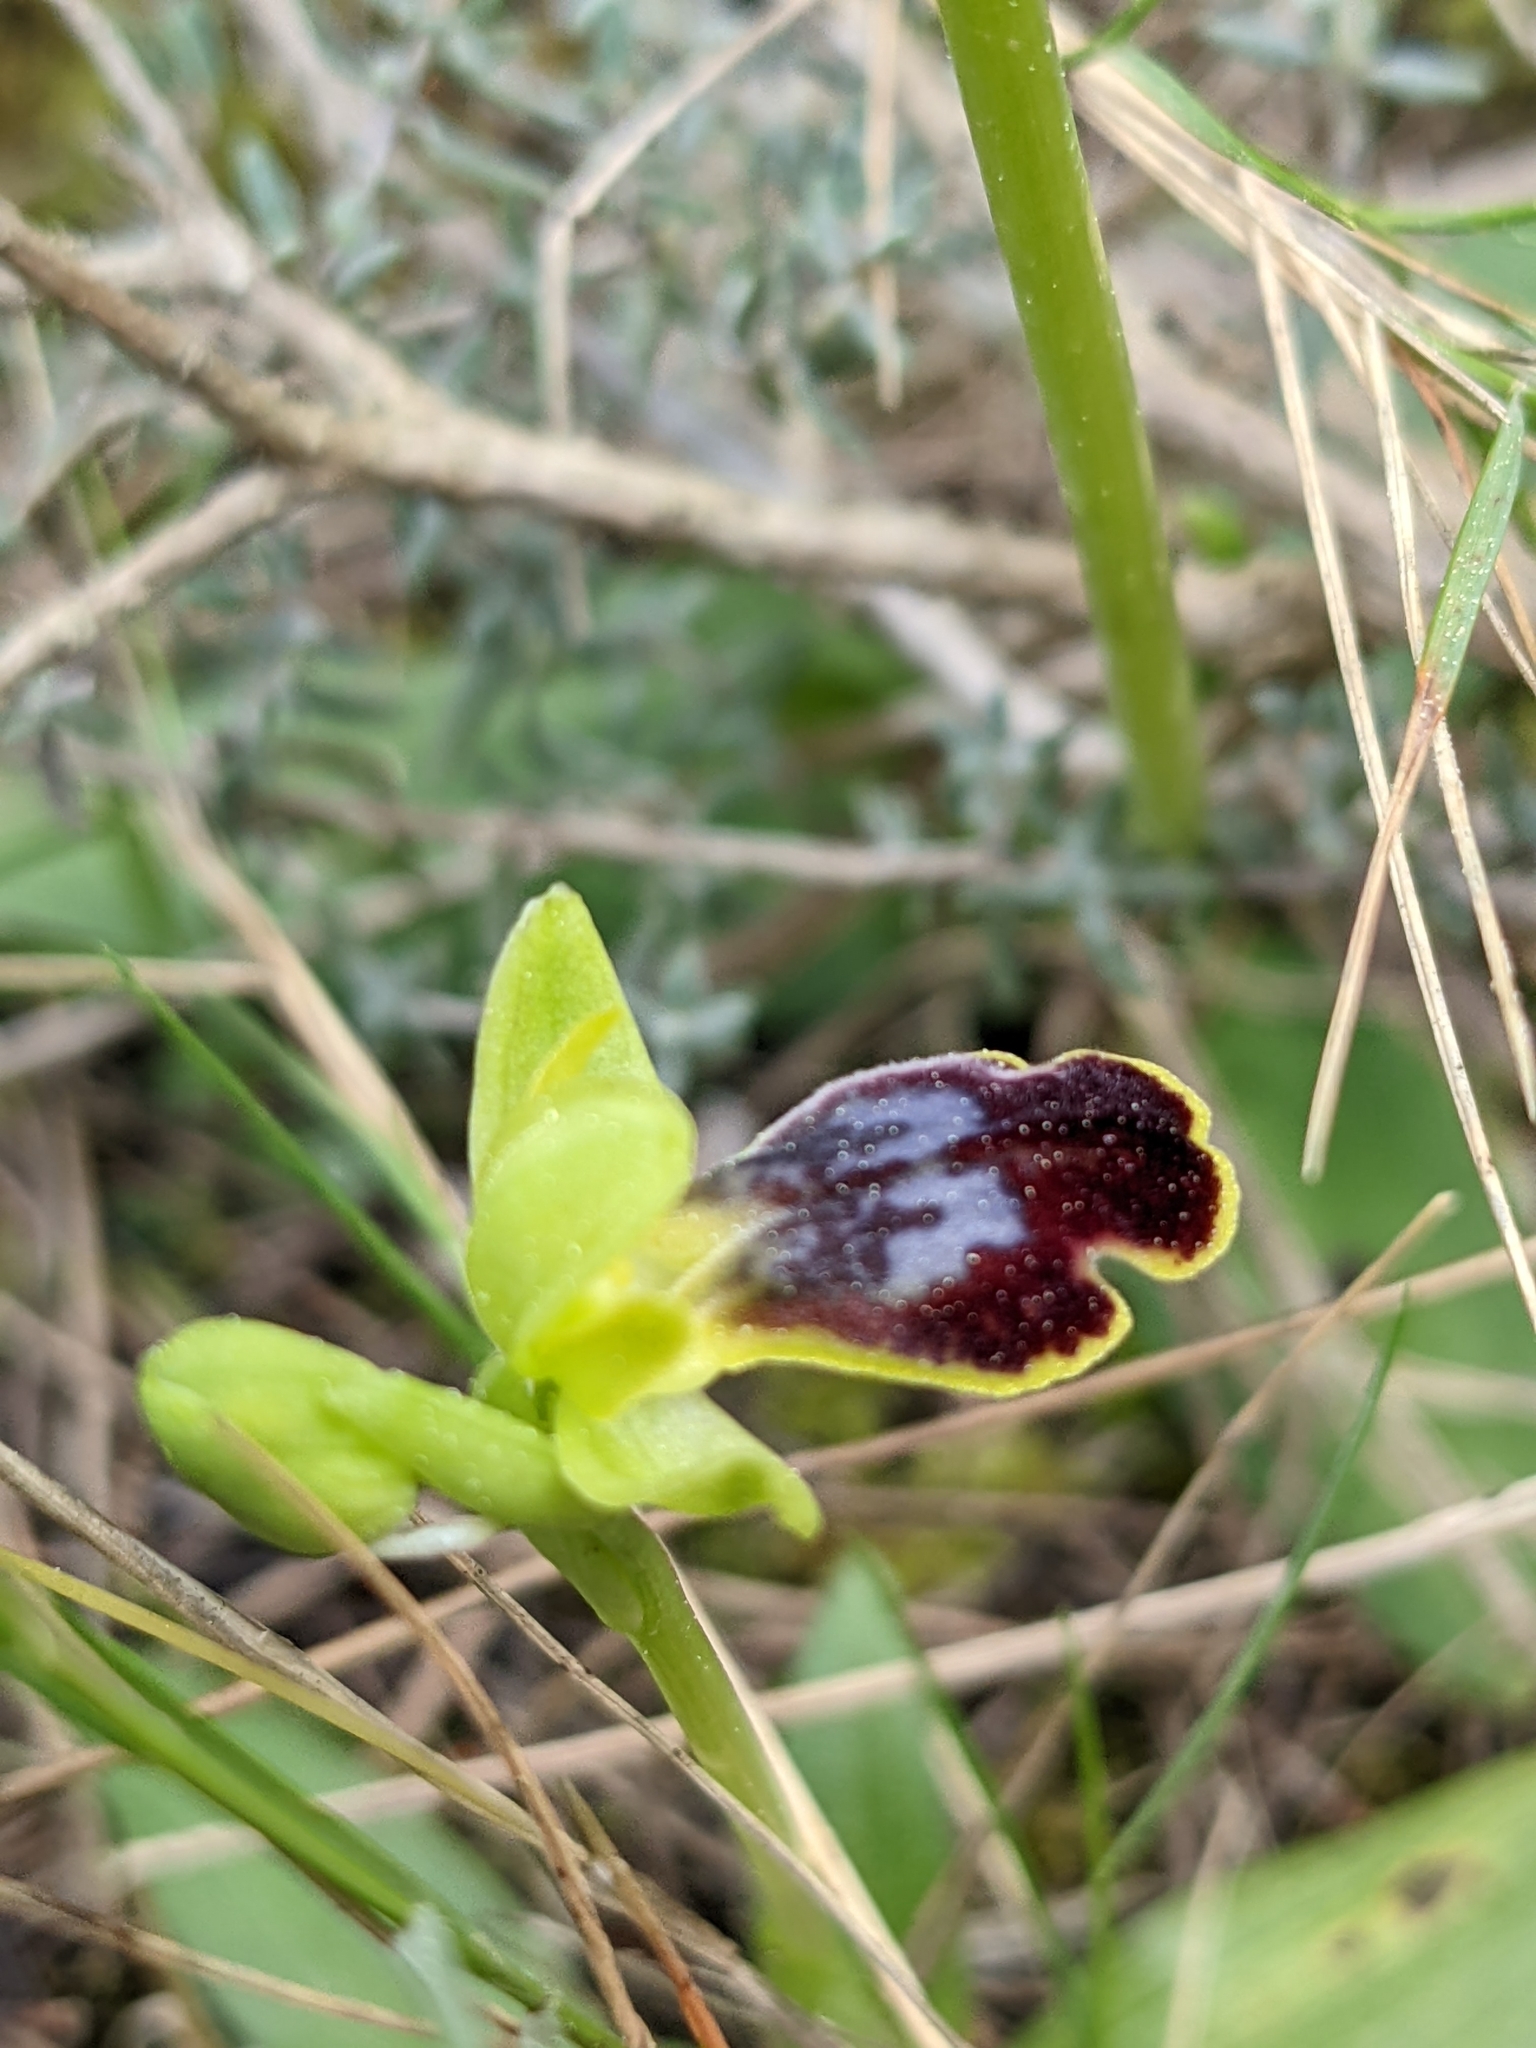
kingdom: Plantae
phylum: Tracheophyta
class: Liliopsida
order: Asparagales
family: Orchidaceae
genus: Ophrys
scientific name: Ophrys fusca
